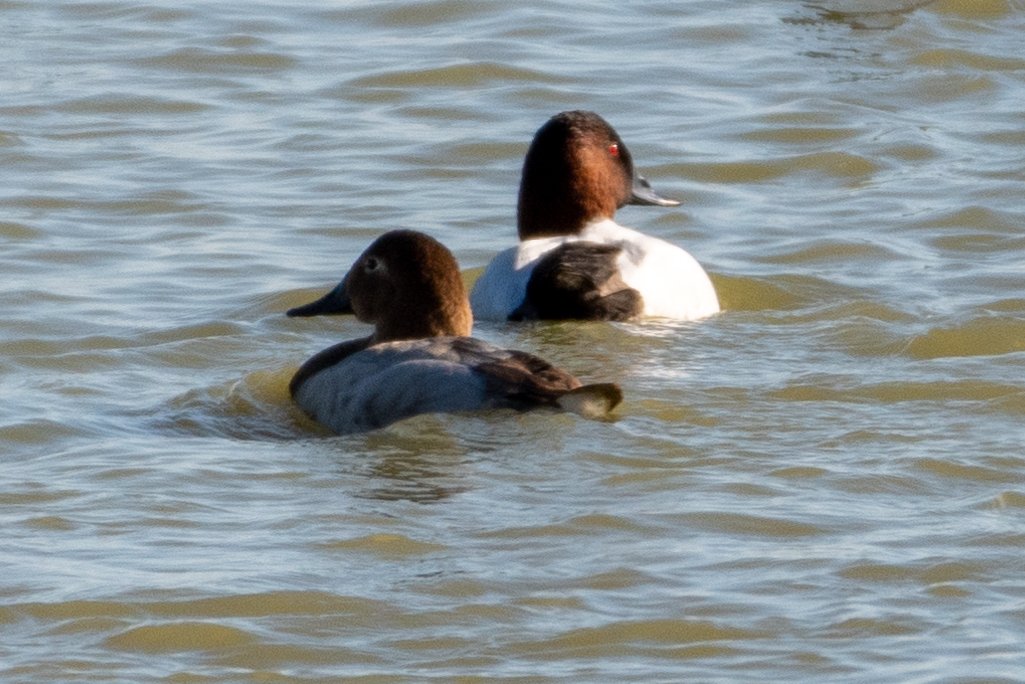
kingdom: Animalia
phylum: Chordata
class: Aves
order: Anseriformes
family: Anatidae
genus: Aythya
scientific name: Aythya valisineria
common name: Canvasback
